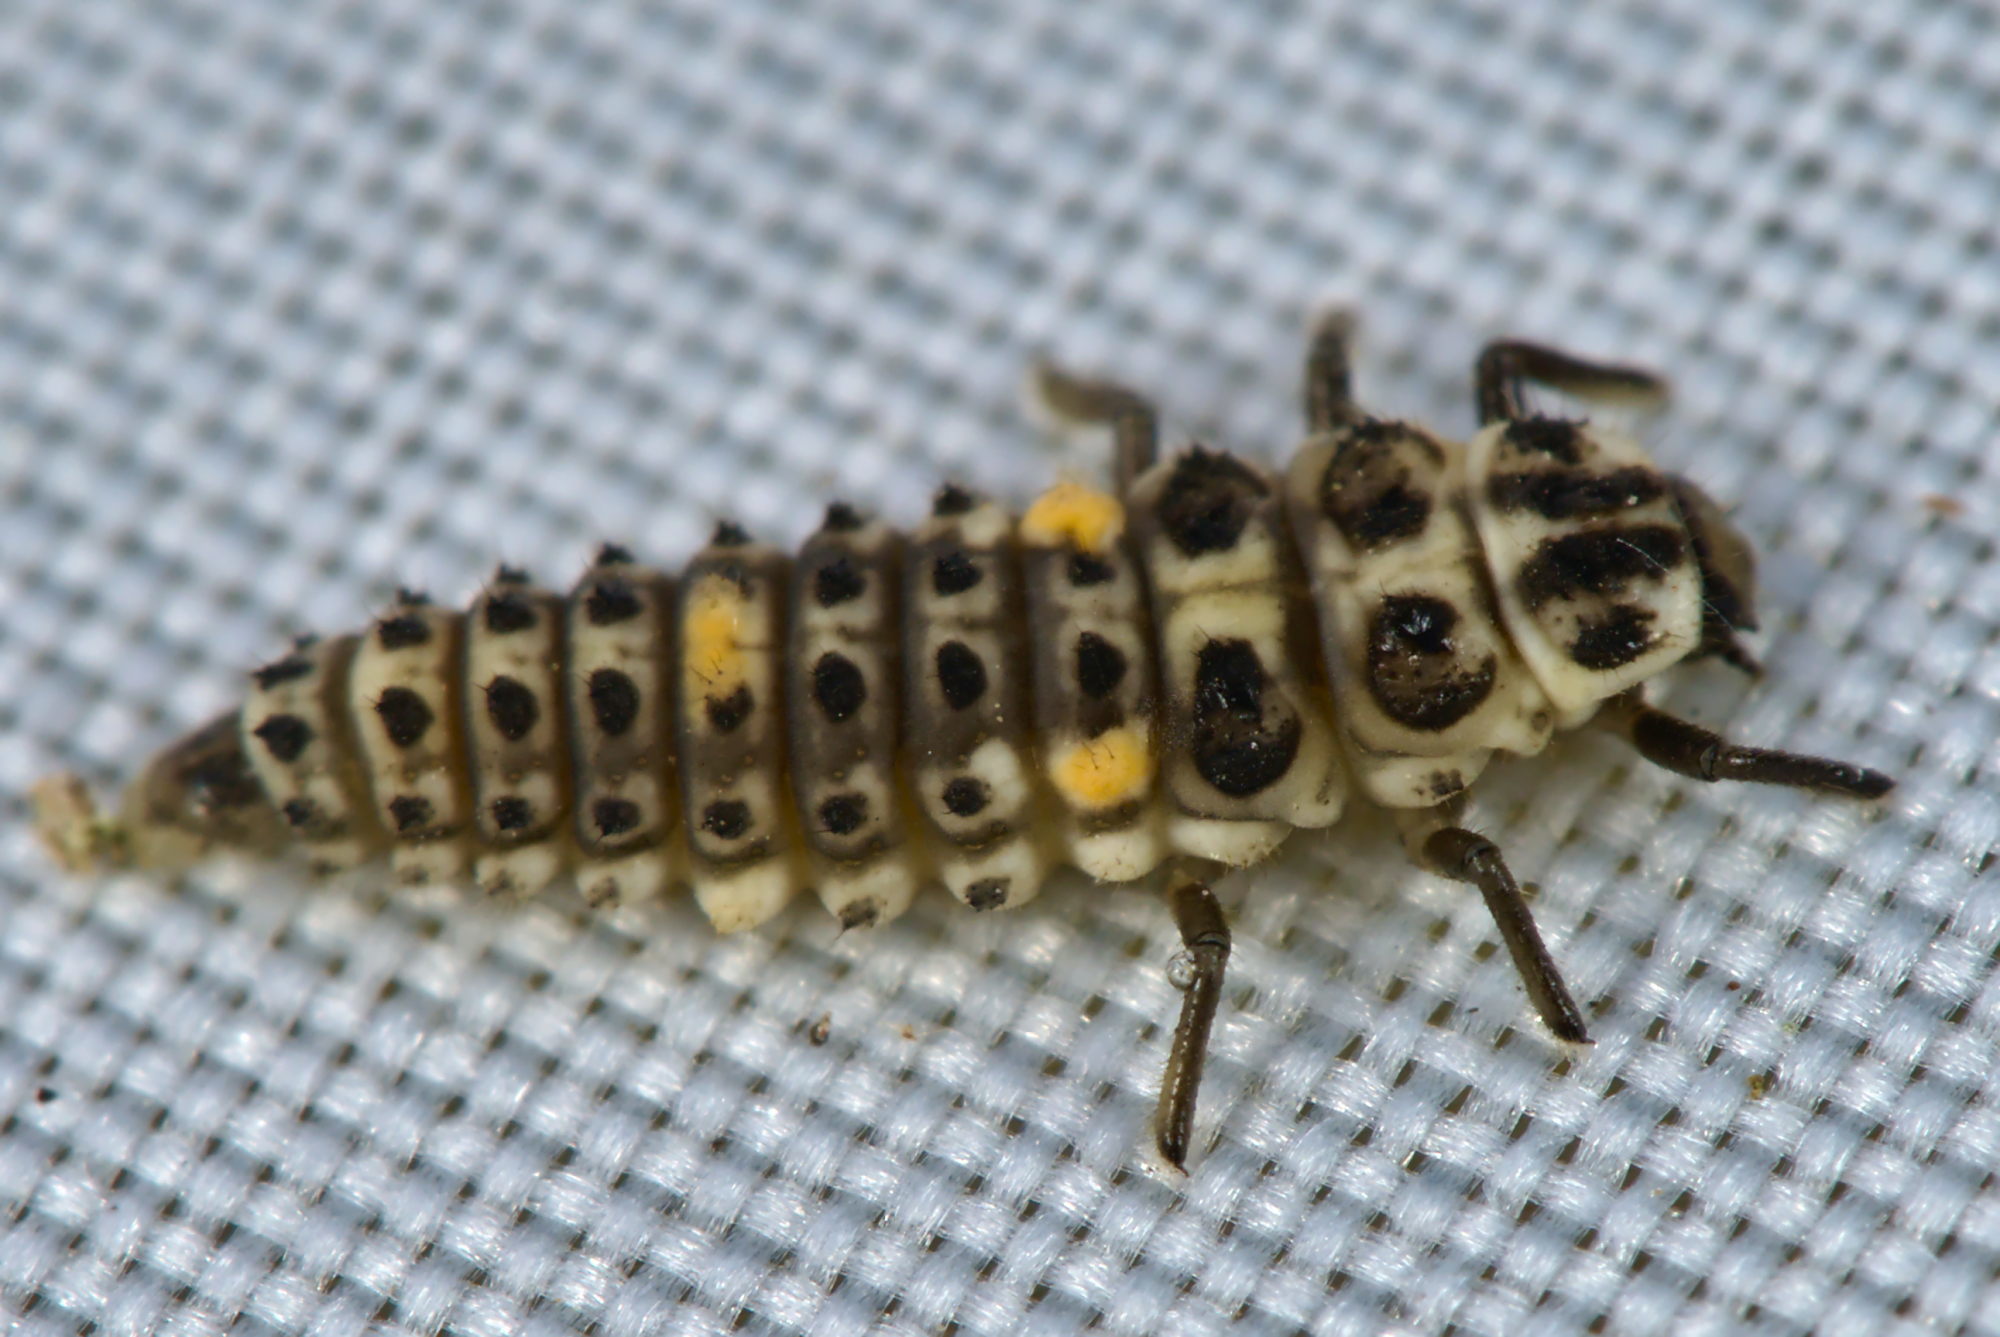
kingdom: Animalia
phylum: Arthropoda
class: Insecta
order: Coleoptera
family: Coccinellidae
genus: Adalia
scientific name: Adalia decempunctata
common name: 10-spot ladybird
